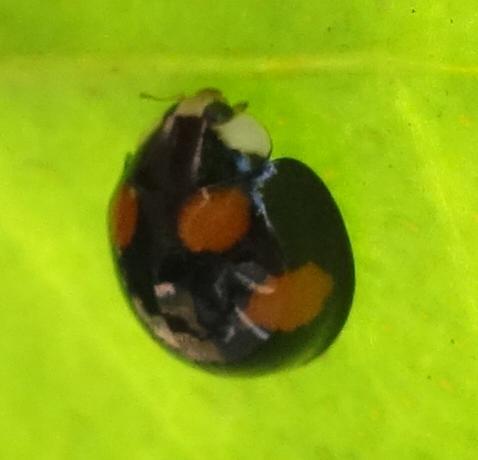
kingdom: Animalia
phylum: Arthropoda
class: Insecta
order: Coleoptera
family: Coccinellidae
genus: Coelophora
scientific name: Coelophora bowringii
